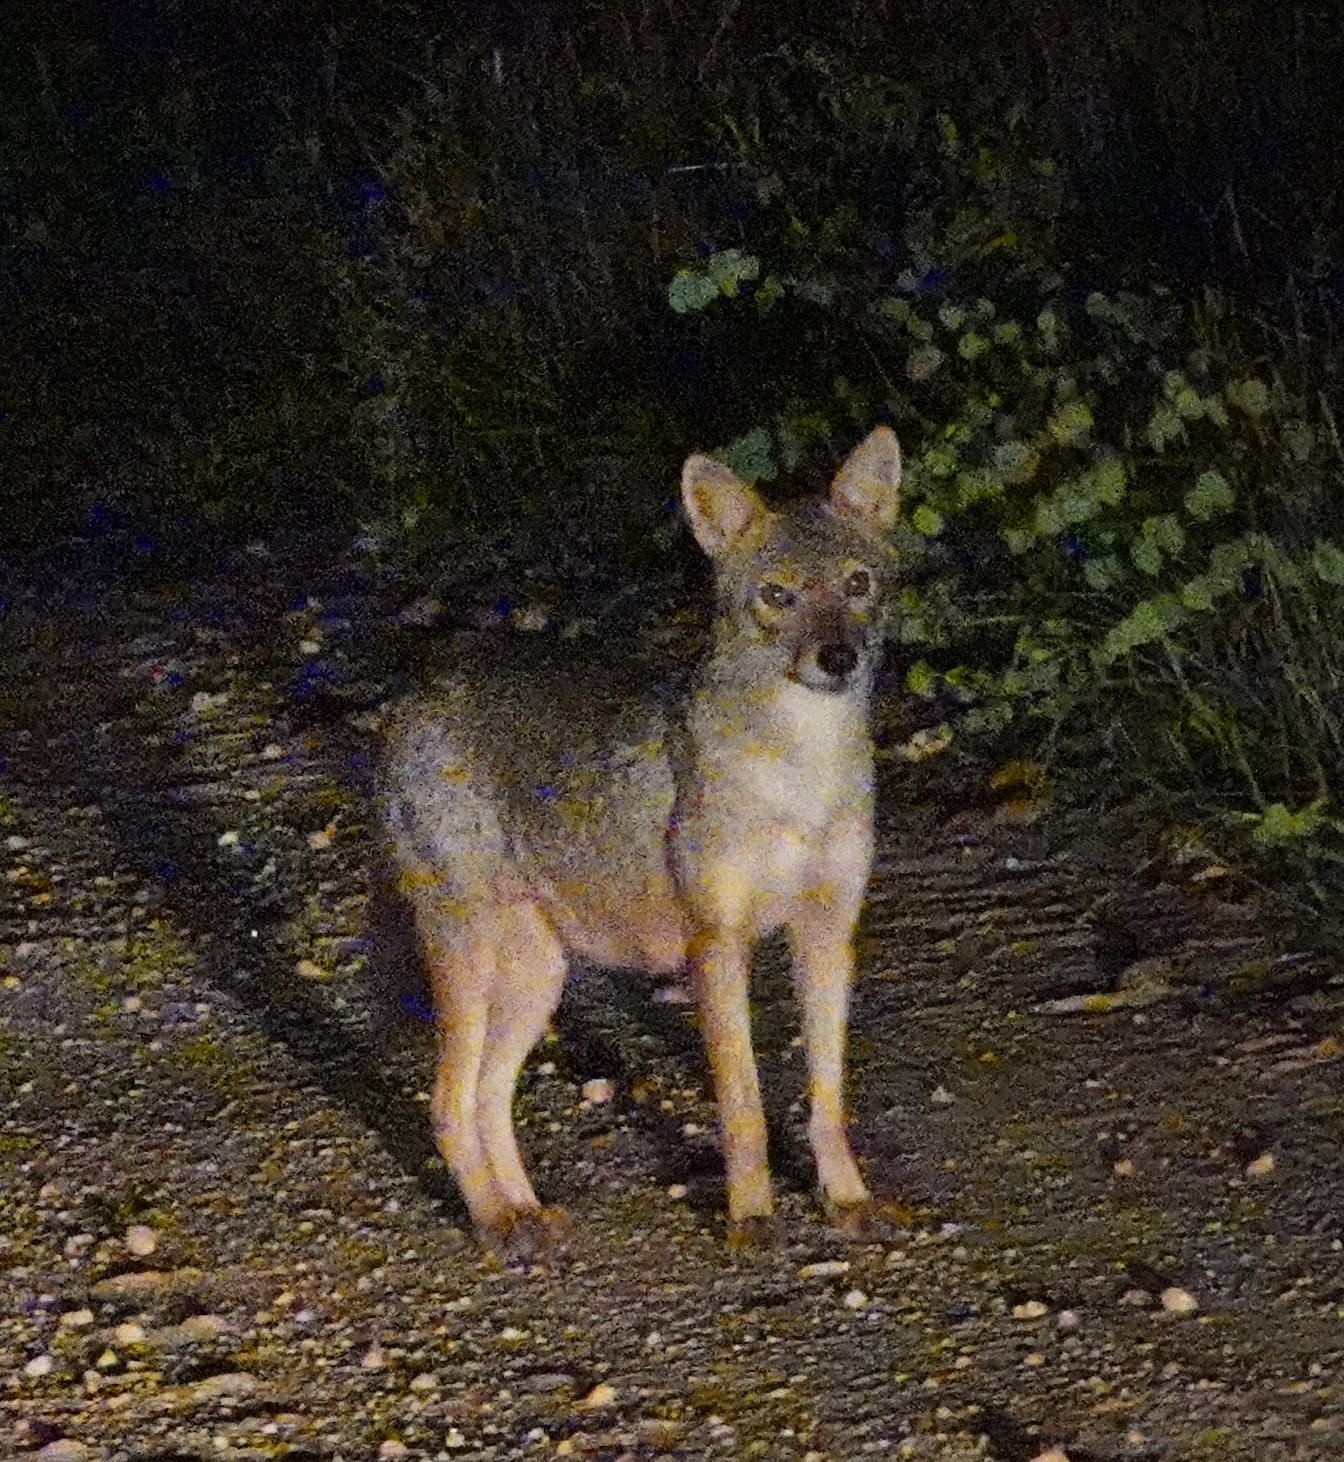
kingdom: Animalia
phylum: Chordata
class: Mammalia
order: Carnivora
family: Canidae
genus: Canis
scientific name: Canis aureus
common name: Golden jackal
